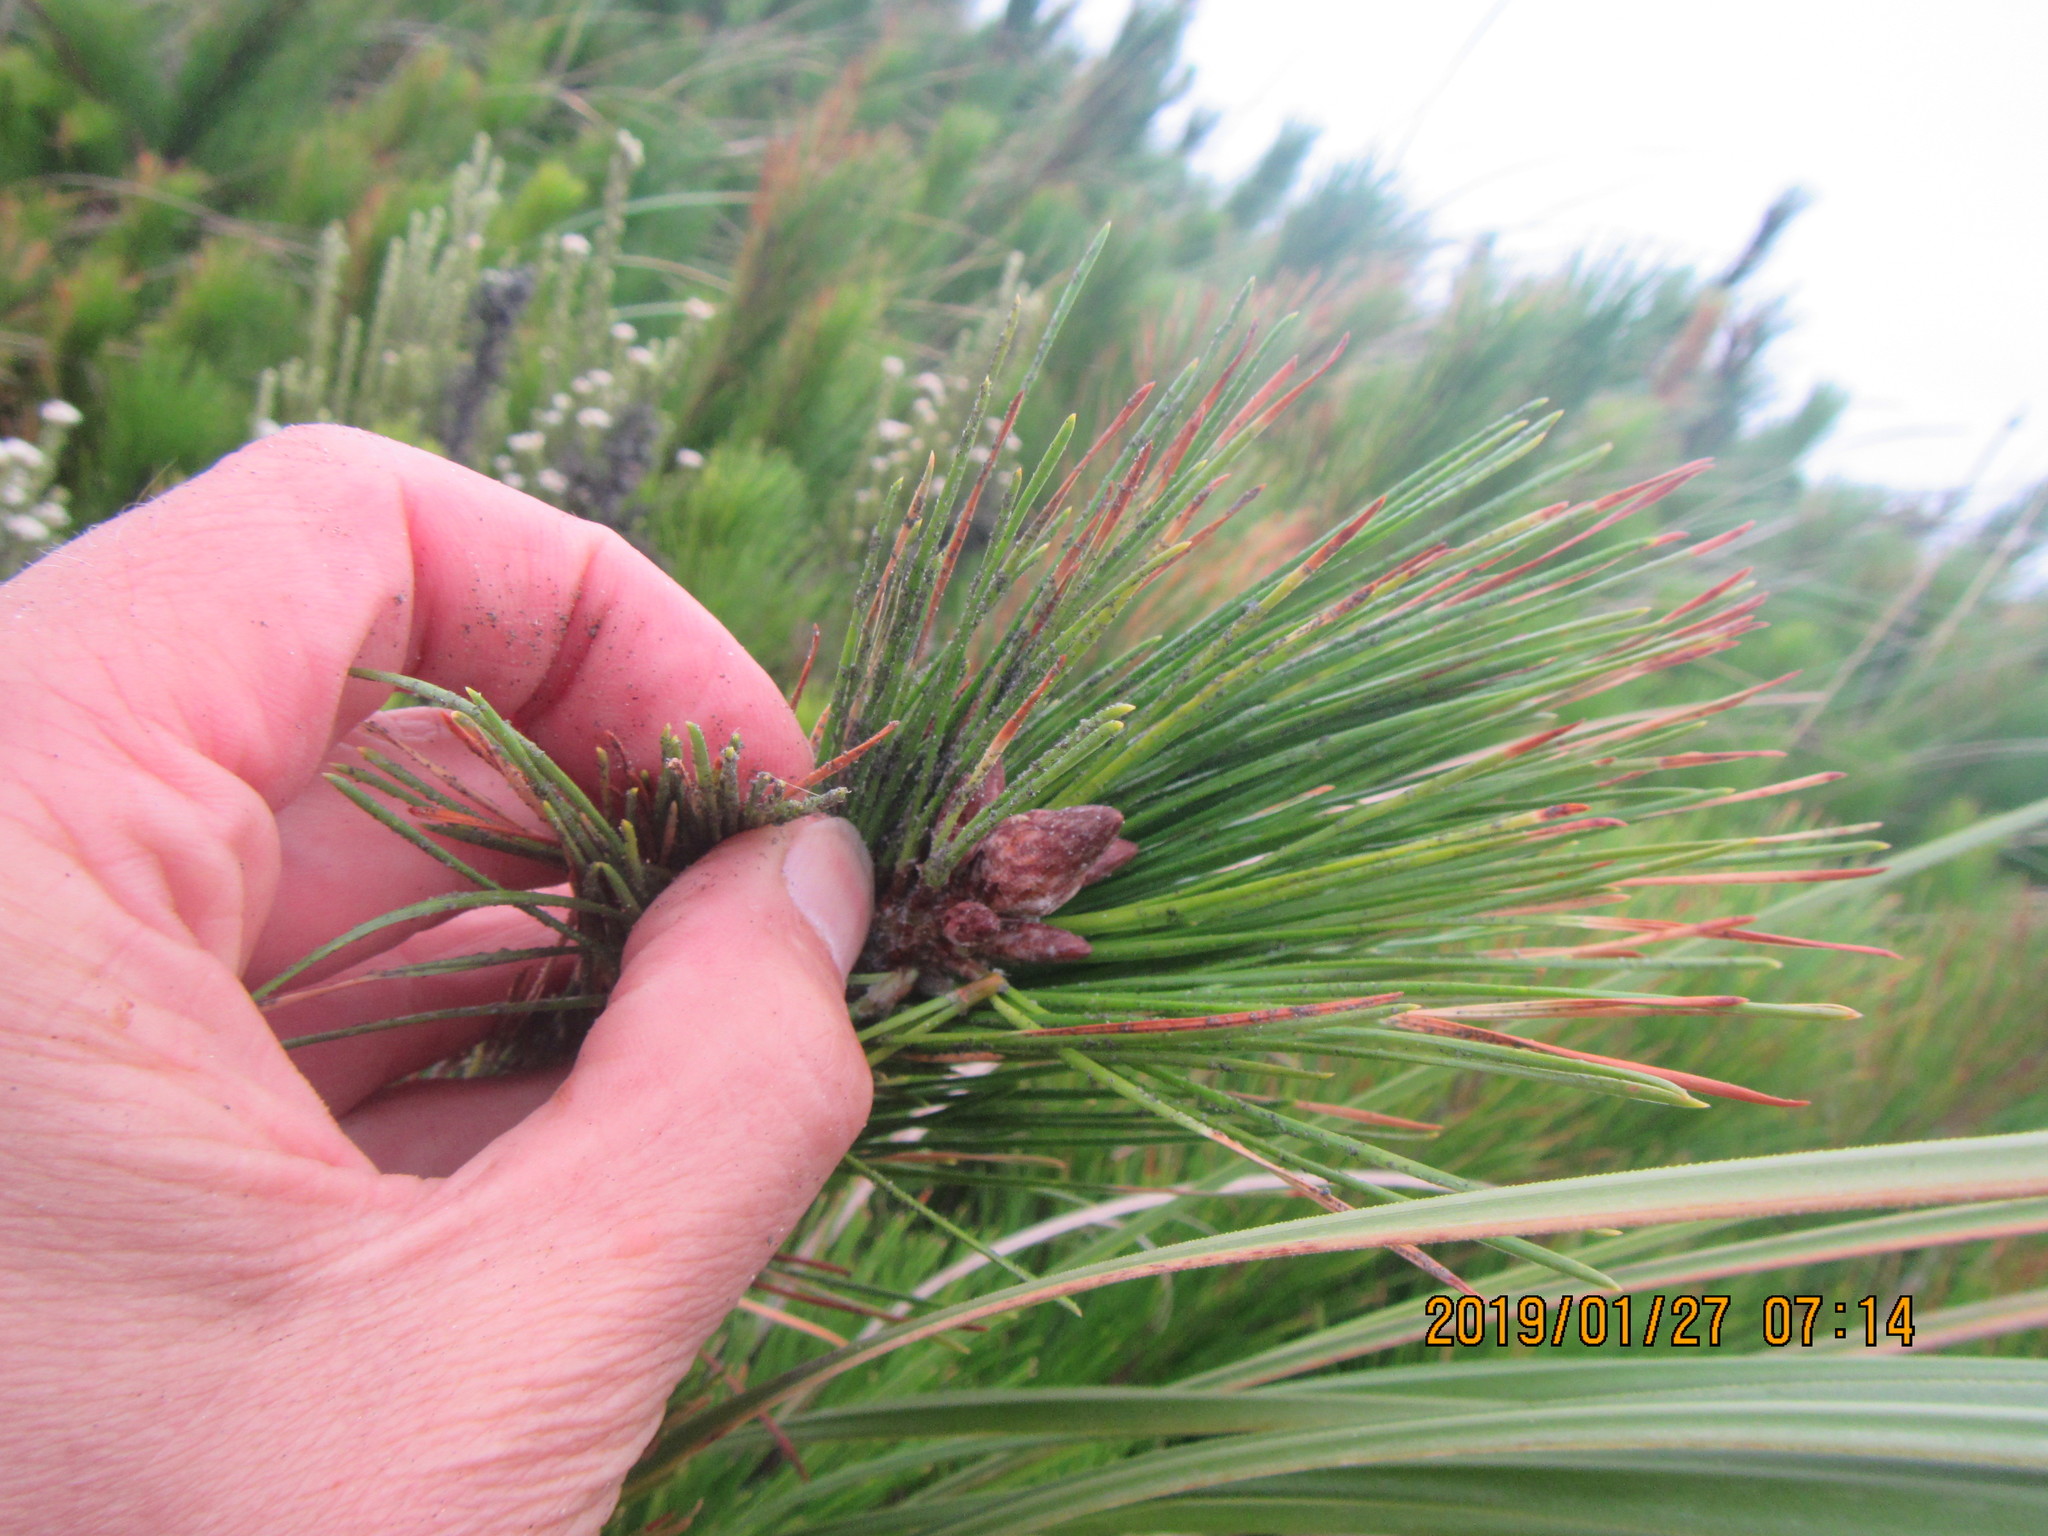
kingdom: Plantae
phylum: Tracheophyta
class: Pinopsida
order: Pinales
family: Pinaceae
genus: Pinus
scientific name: Pinus radiata
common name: Monterey pine
